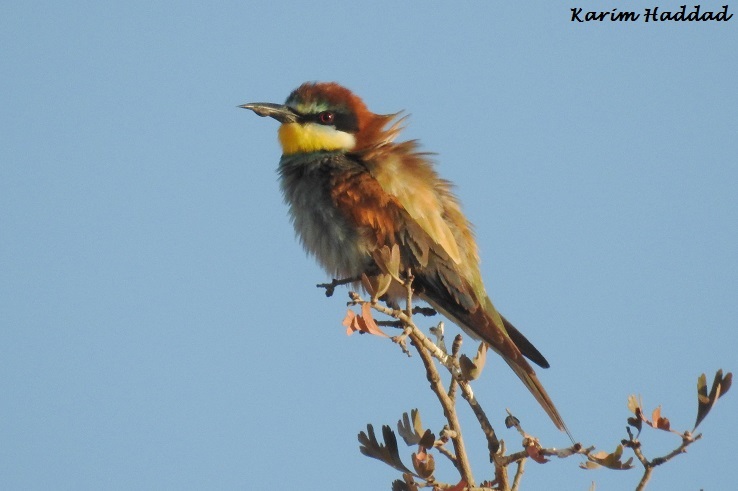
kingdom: Animalia
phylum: Chordata
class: Aves
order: Coraciiformes
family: Meropidae
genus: Merops
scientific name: Merops apiaster
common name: European bee-eater
